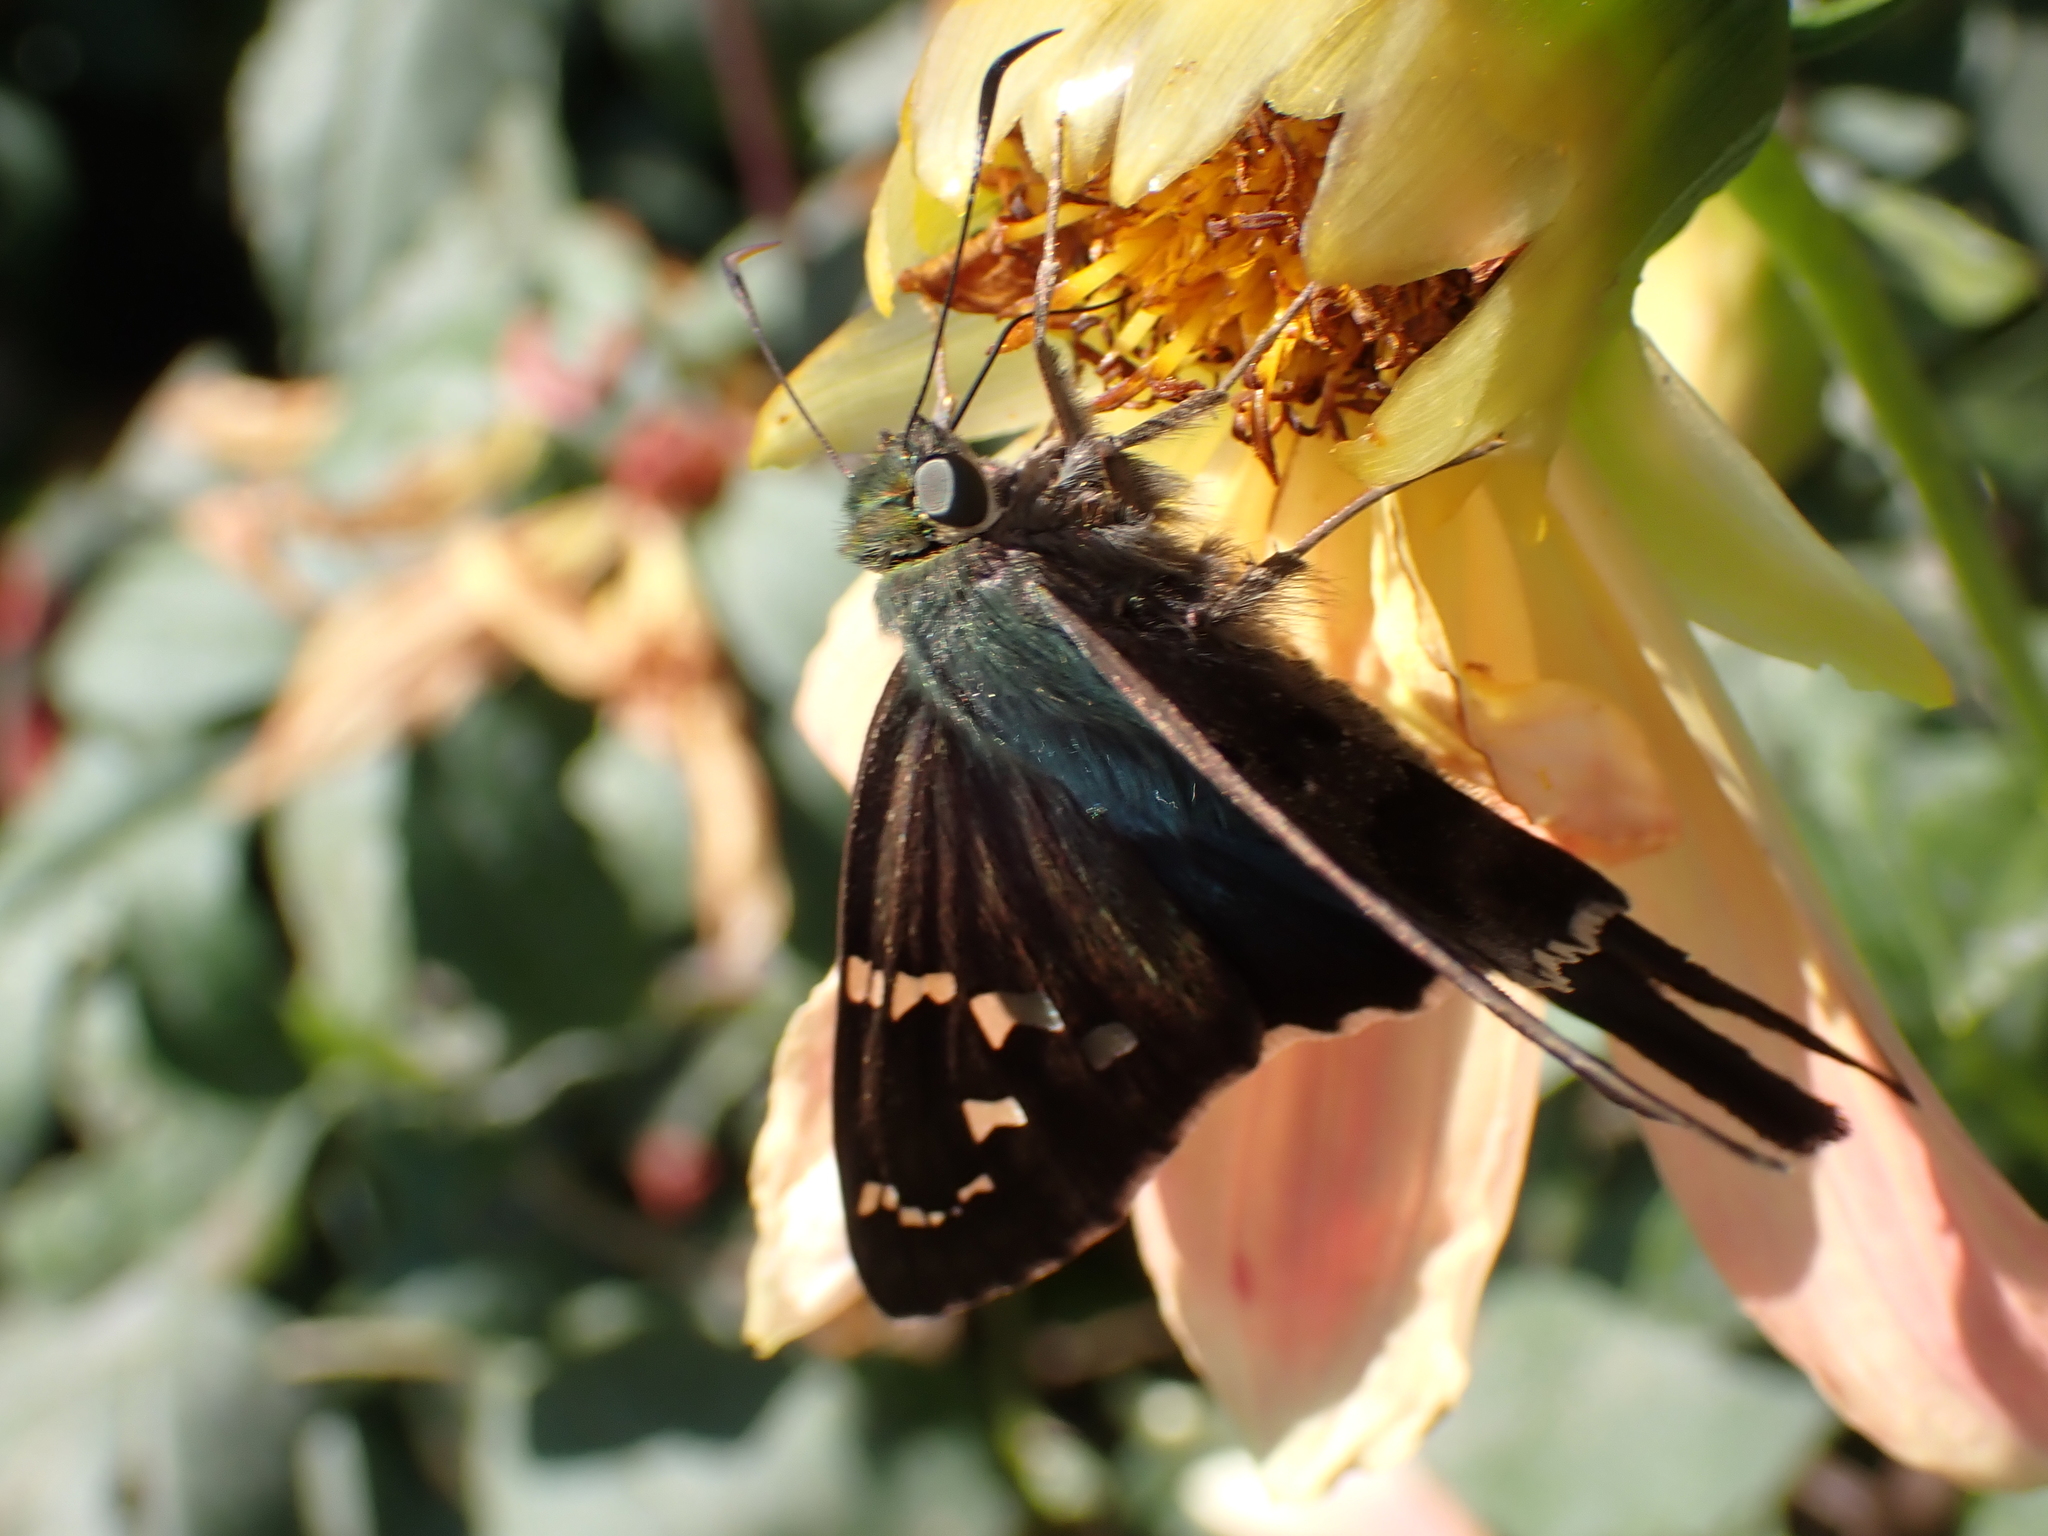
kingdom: Animalia
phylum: Arthropoda
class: Insecta
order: Lepidoptera
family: Hesperiidae
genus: Urbanus
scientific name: Urbanus proteus
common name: Long-tailed skipper
